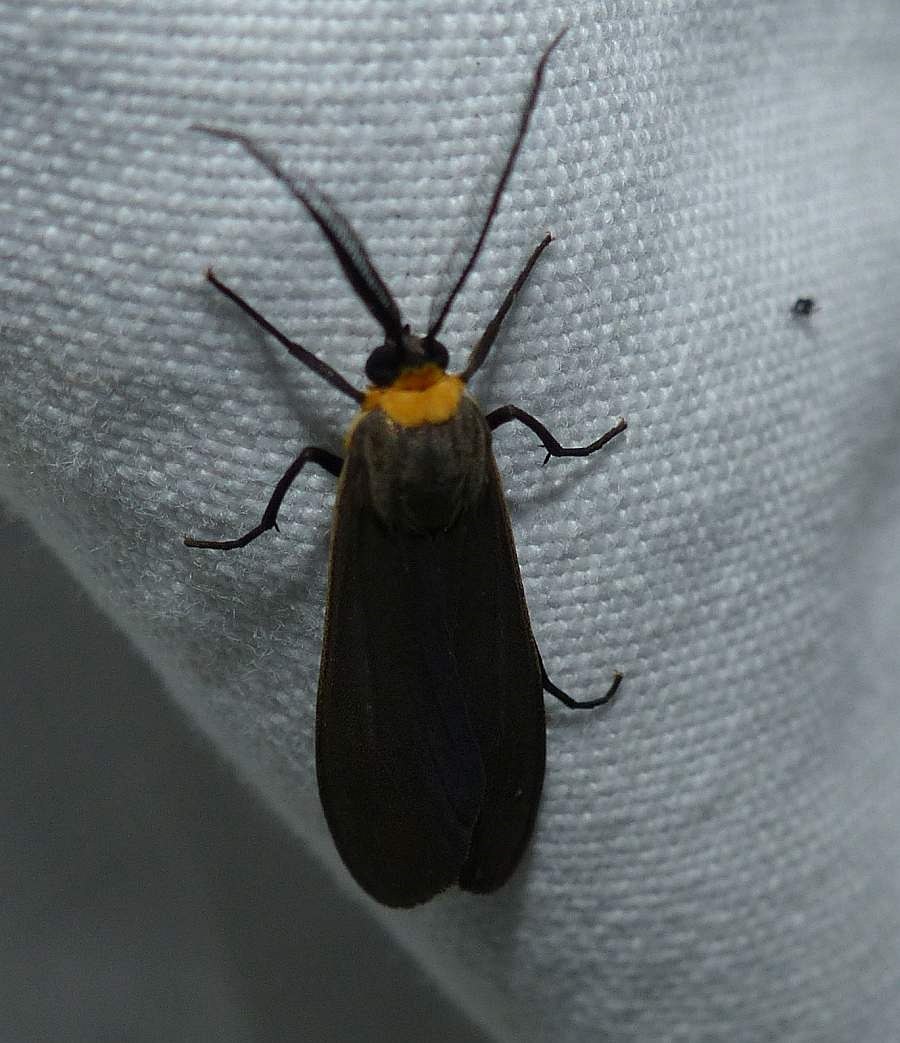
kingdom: Animalia
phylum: Arthropoda
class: Insecta
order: Lepidoptera
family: Erebidae
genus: Cisseps
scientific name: Cisseps fulvicollis
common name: Yellow-collared scape moth
